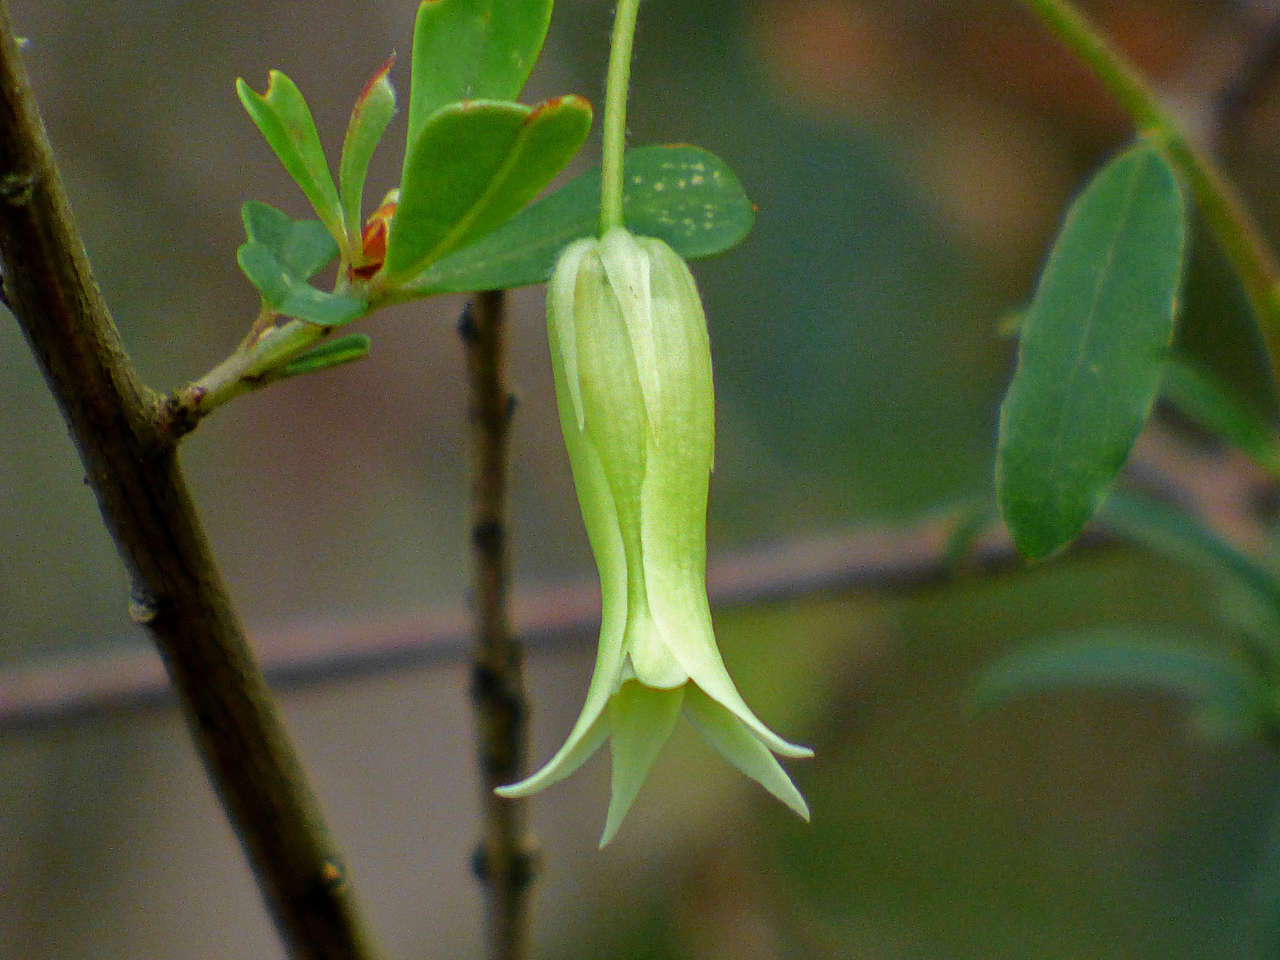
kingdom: Plantae
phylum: Tracheophyta
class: Magnoliopsida
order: Apiales
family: Pittosporaceae
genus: Billardiera
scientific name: Billardiera mutabilis
